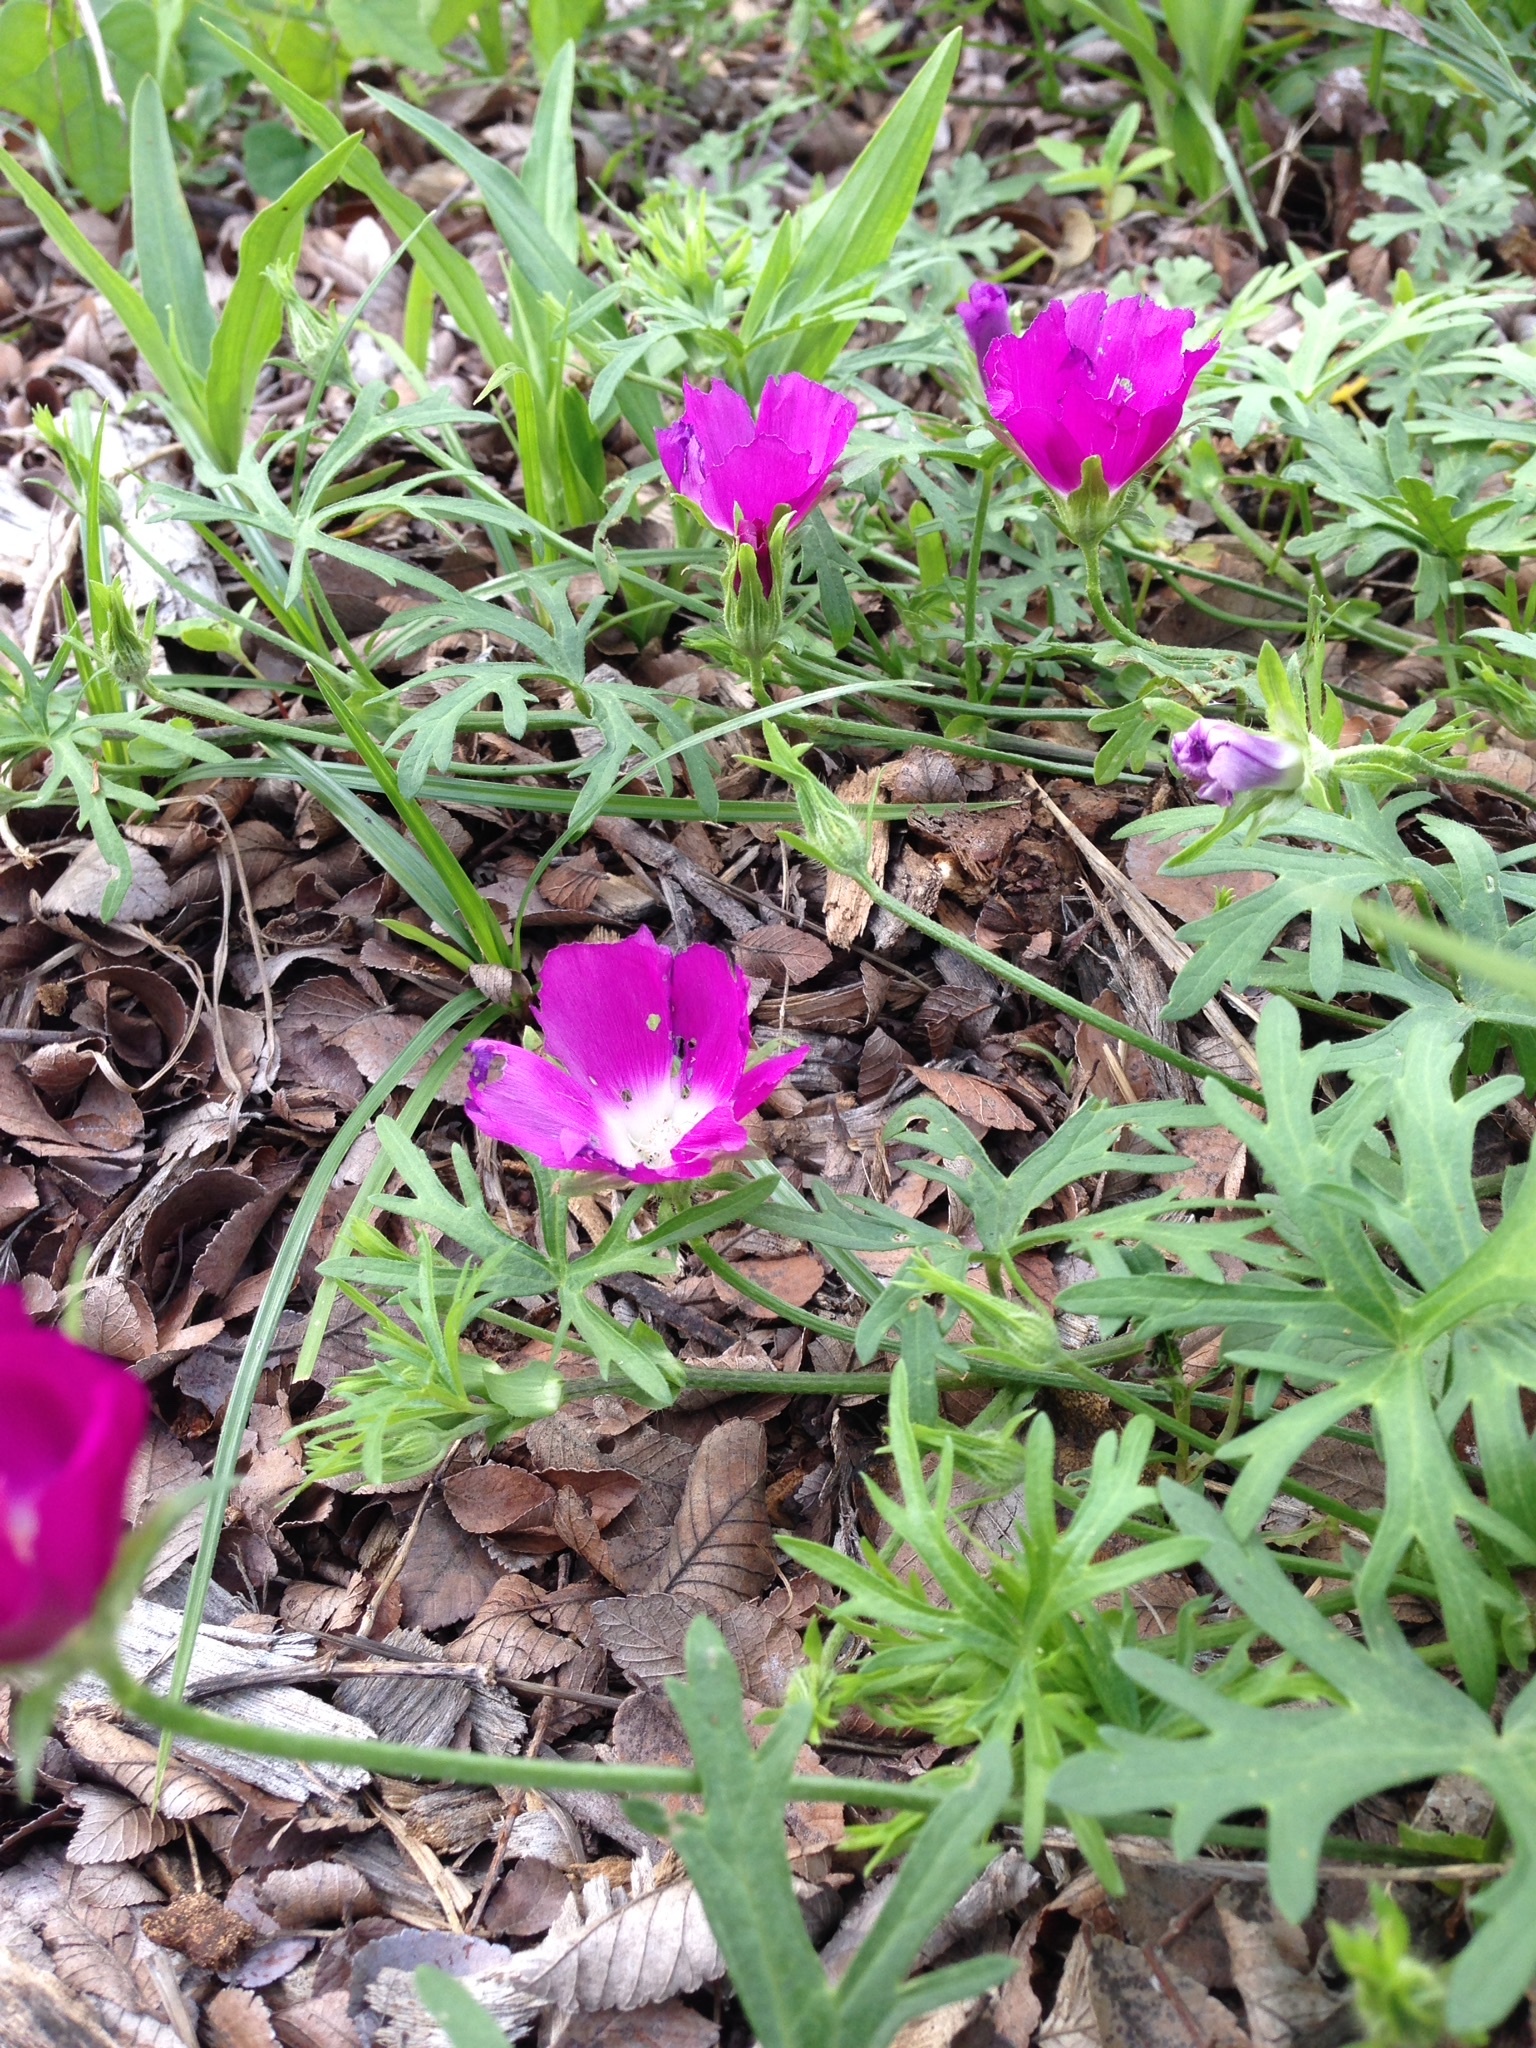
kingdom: Plantae
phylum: Tracheophyta
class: Magnoliopsida
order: Malvales
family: Malvaceae
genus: Callirhoe
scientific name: Callirhoe involucrata
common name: Purple poppy-mallow
